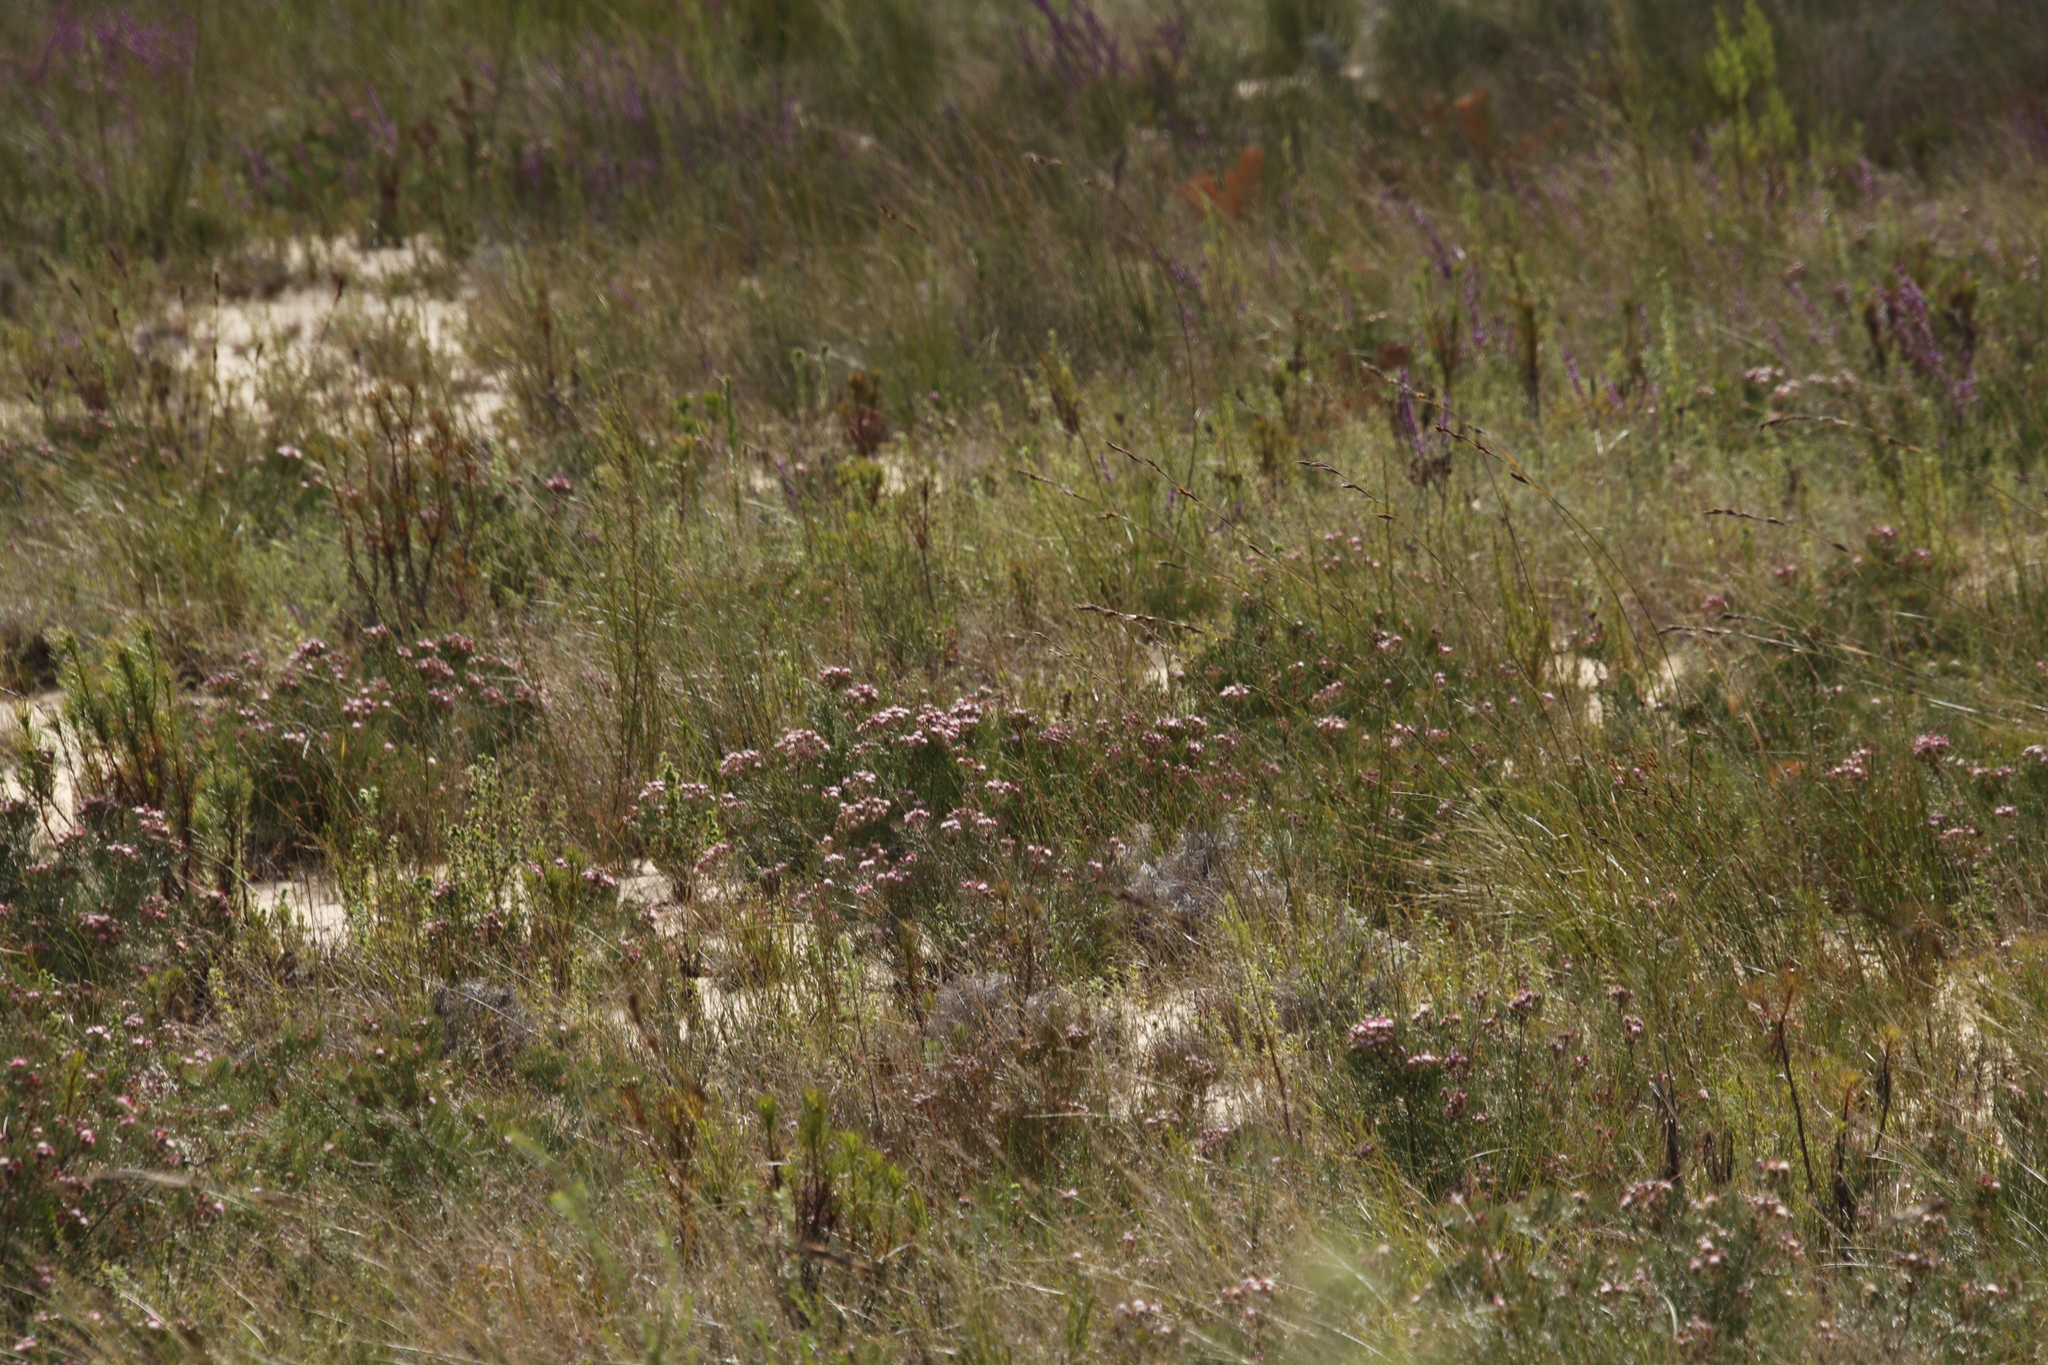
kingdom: Plantae
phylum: Tracheophyta
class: Magnoliopsida
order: Proteales
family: Proteaceae
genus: Serruria
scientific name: Serruria fasciflora
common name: Common pin spiderhead
